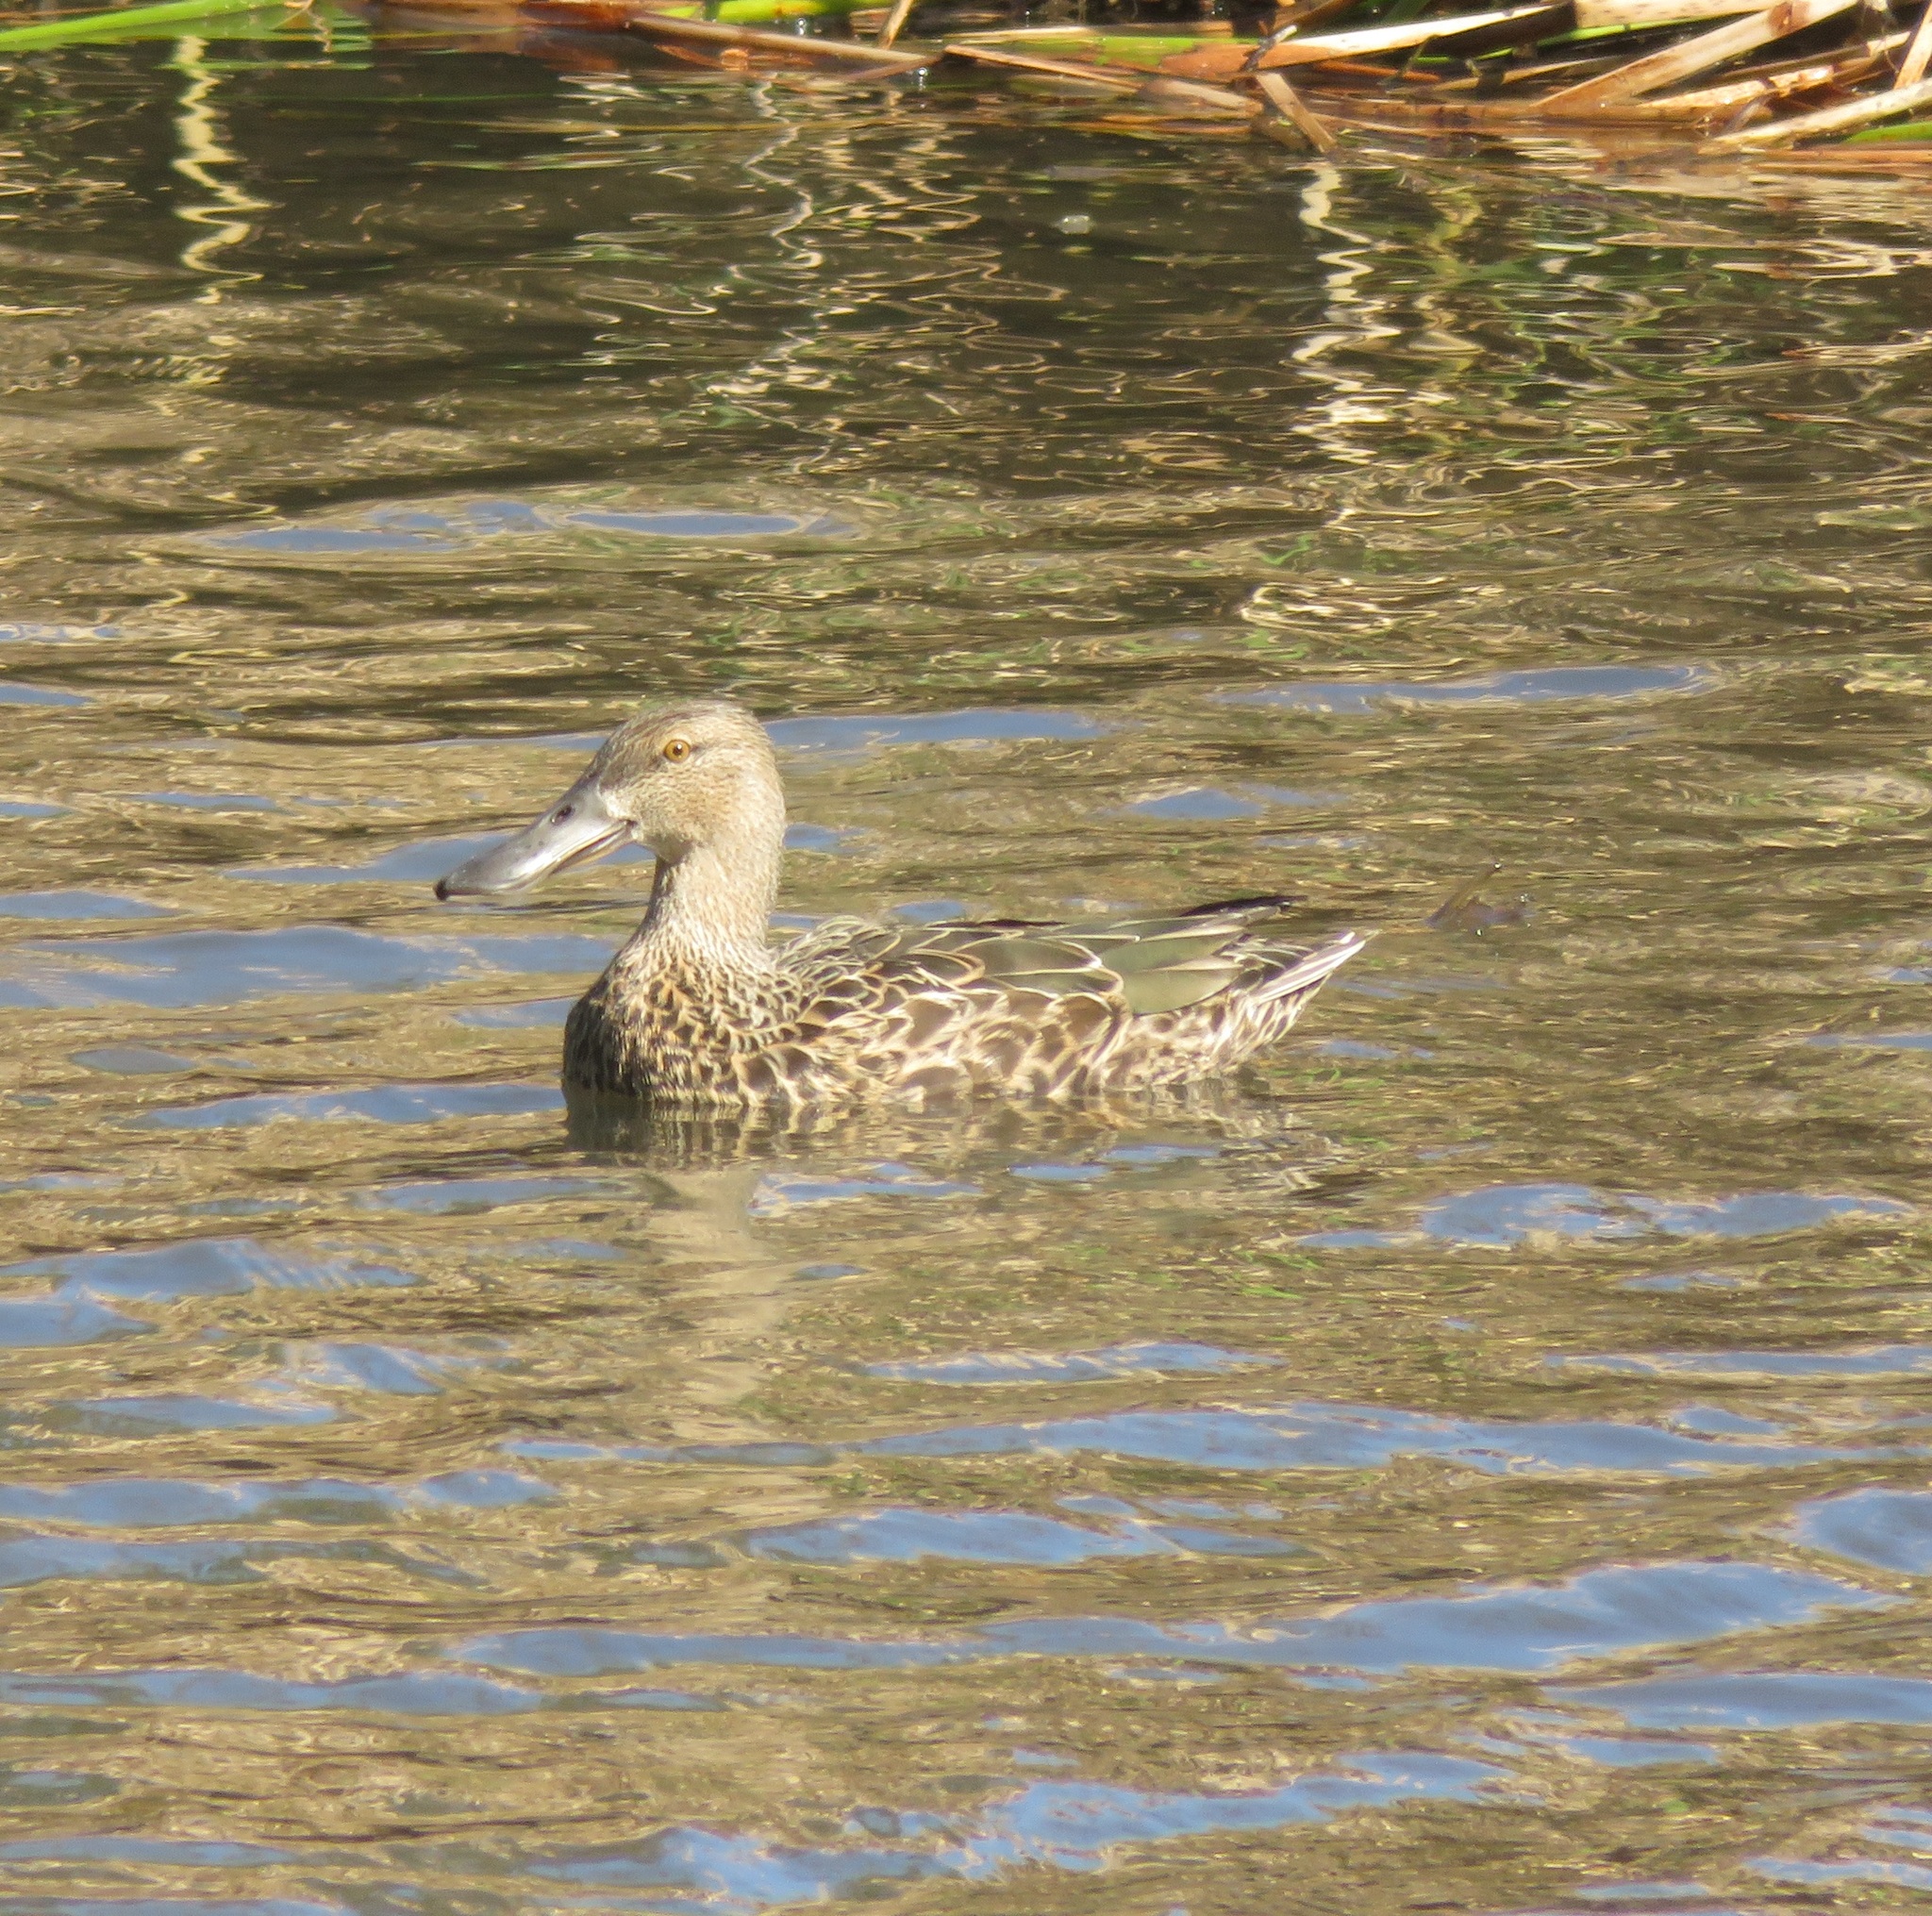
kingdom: Animalia
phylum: Chordata
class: Aves
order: Anseriformes
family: Anatidae
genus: Spatula
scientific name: Spatula rhynchotis
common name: Australian shoveler
